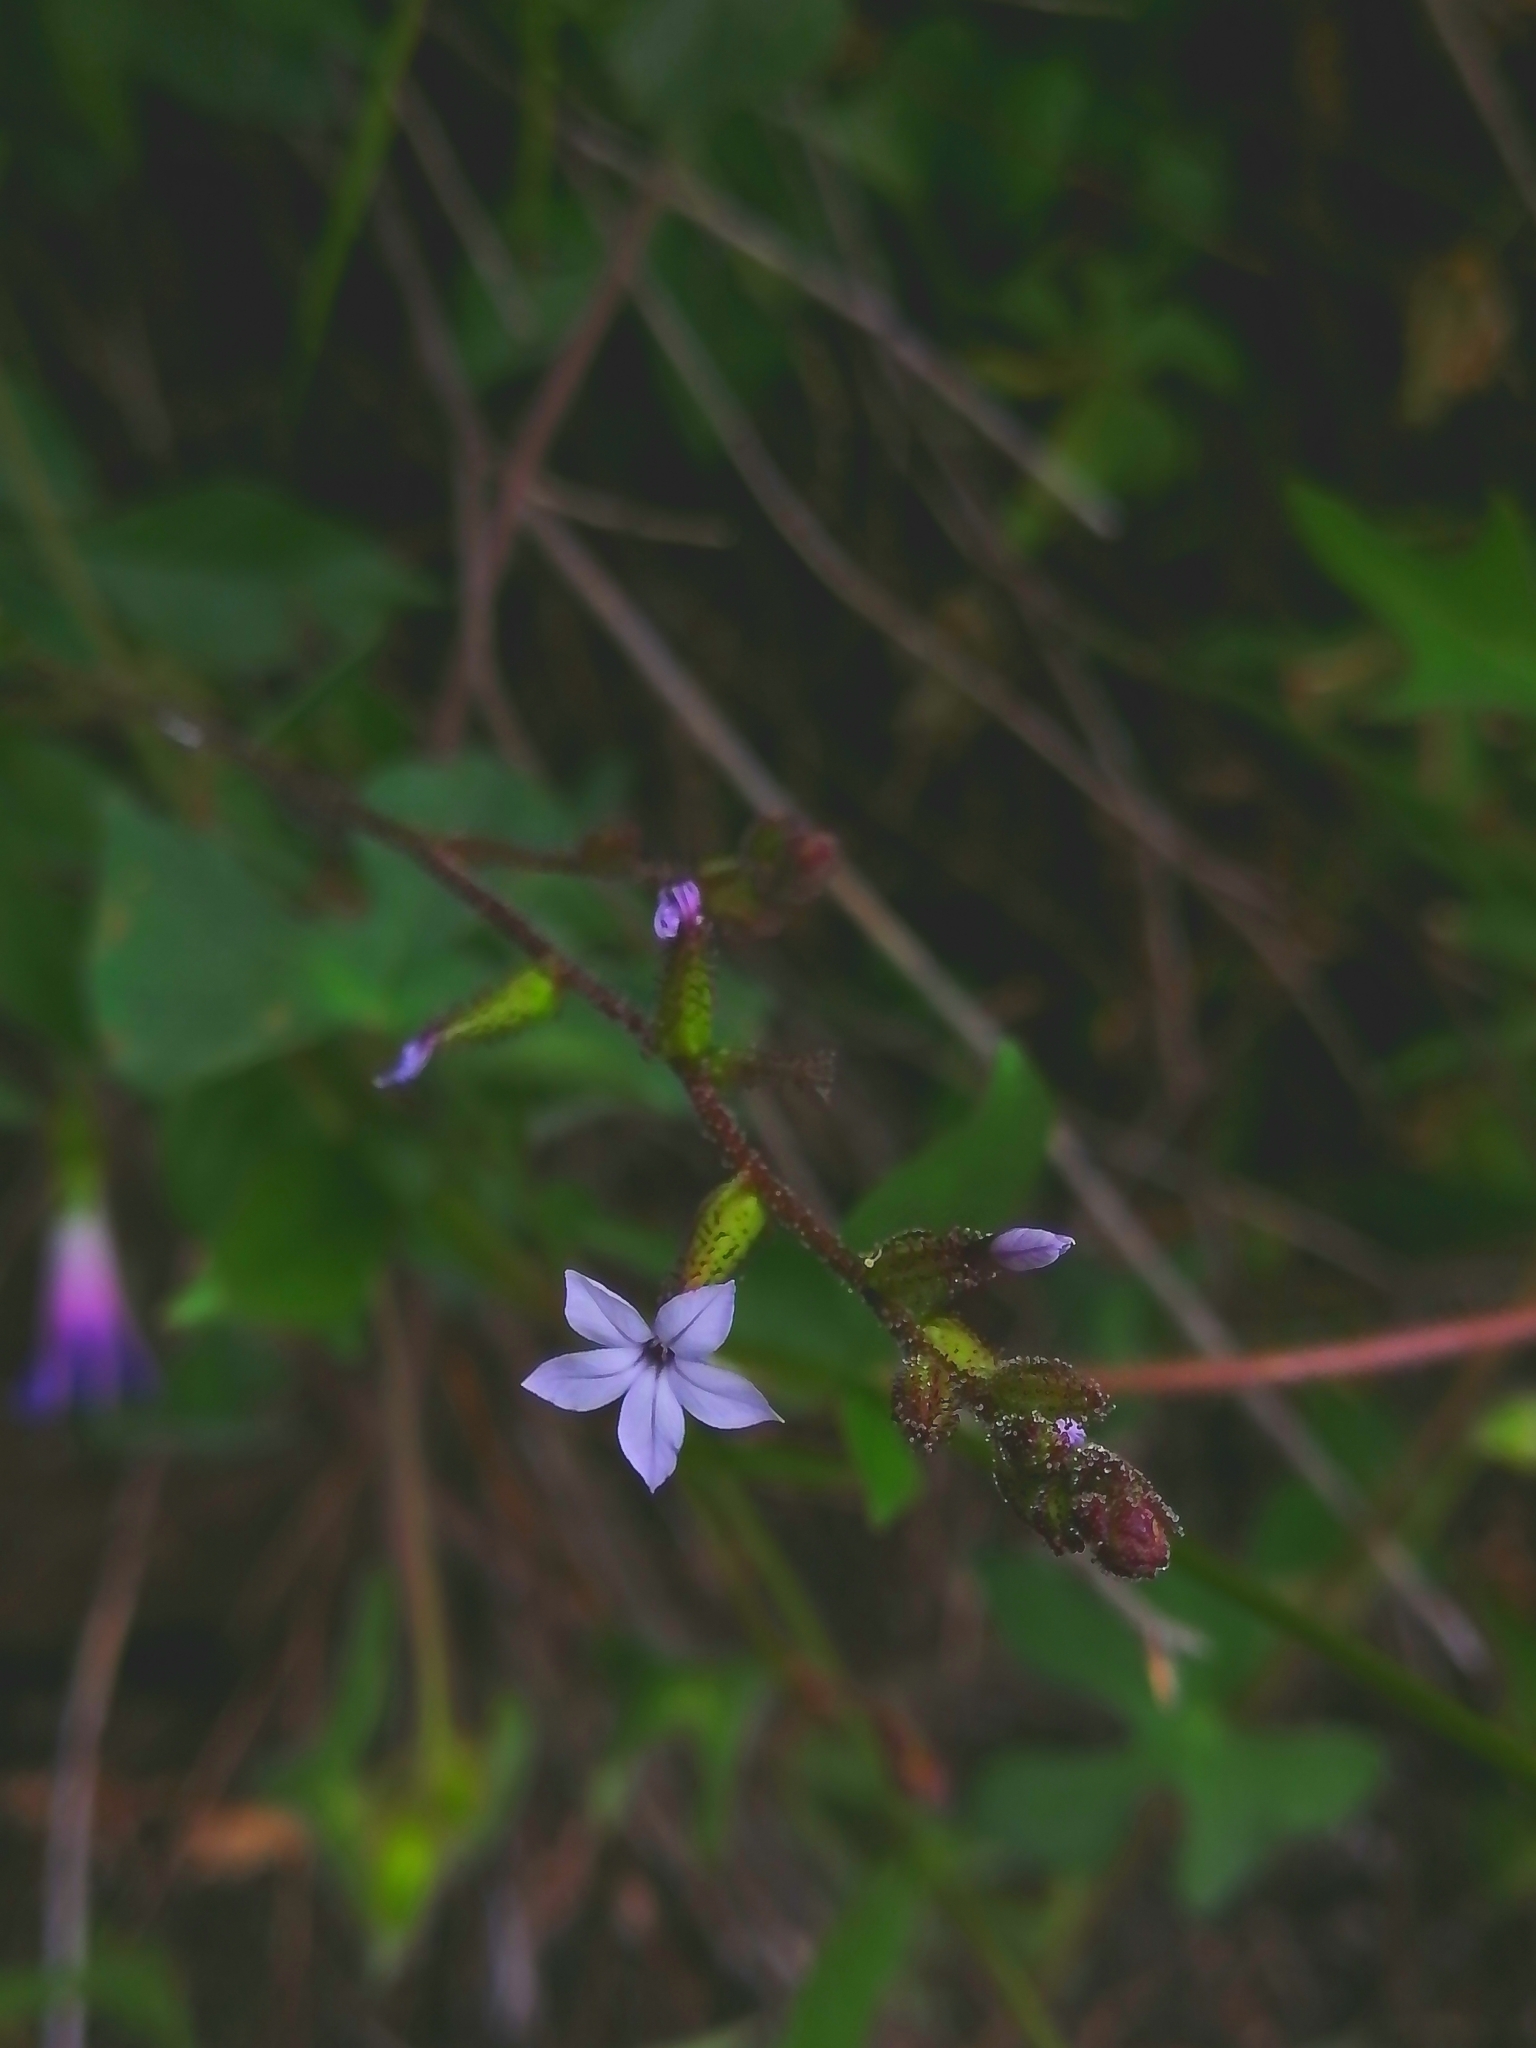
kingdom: Plantae
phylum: Tracheophyta
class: Magnoliopsida
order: Caryophyllales
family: Plumbaginaceae
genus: Plumbago
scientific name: Plumbago pulchella
